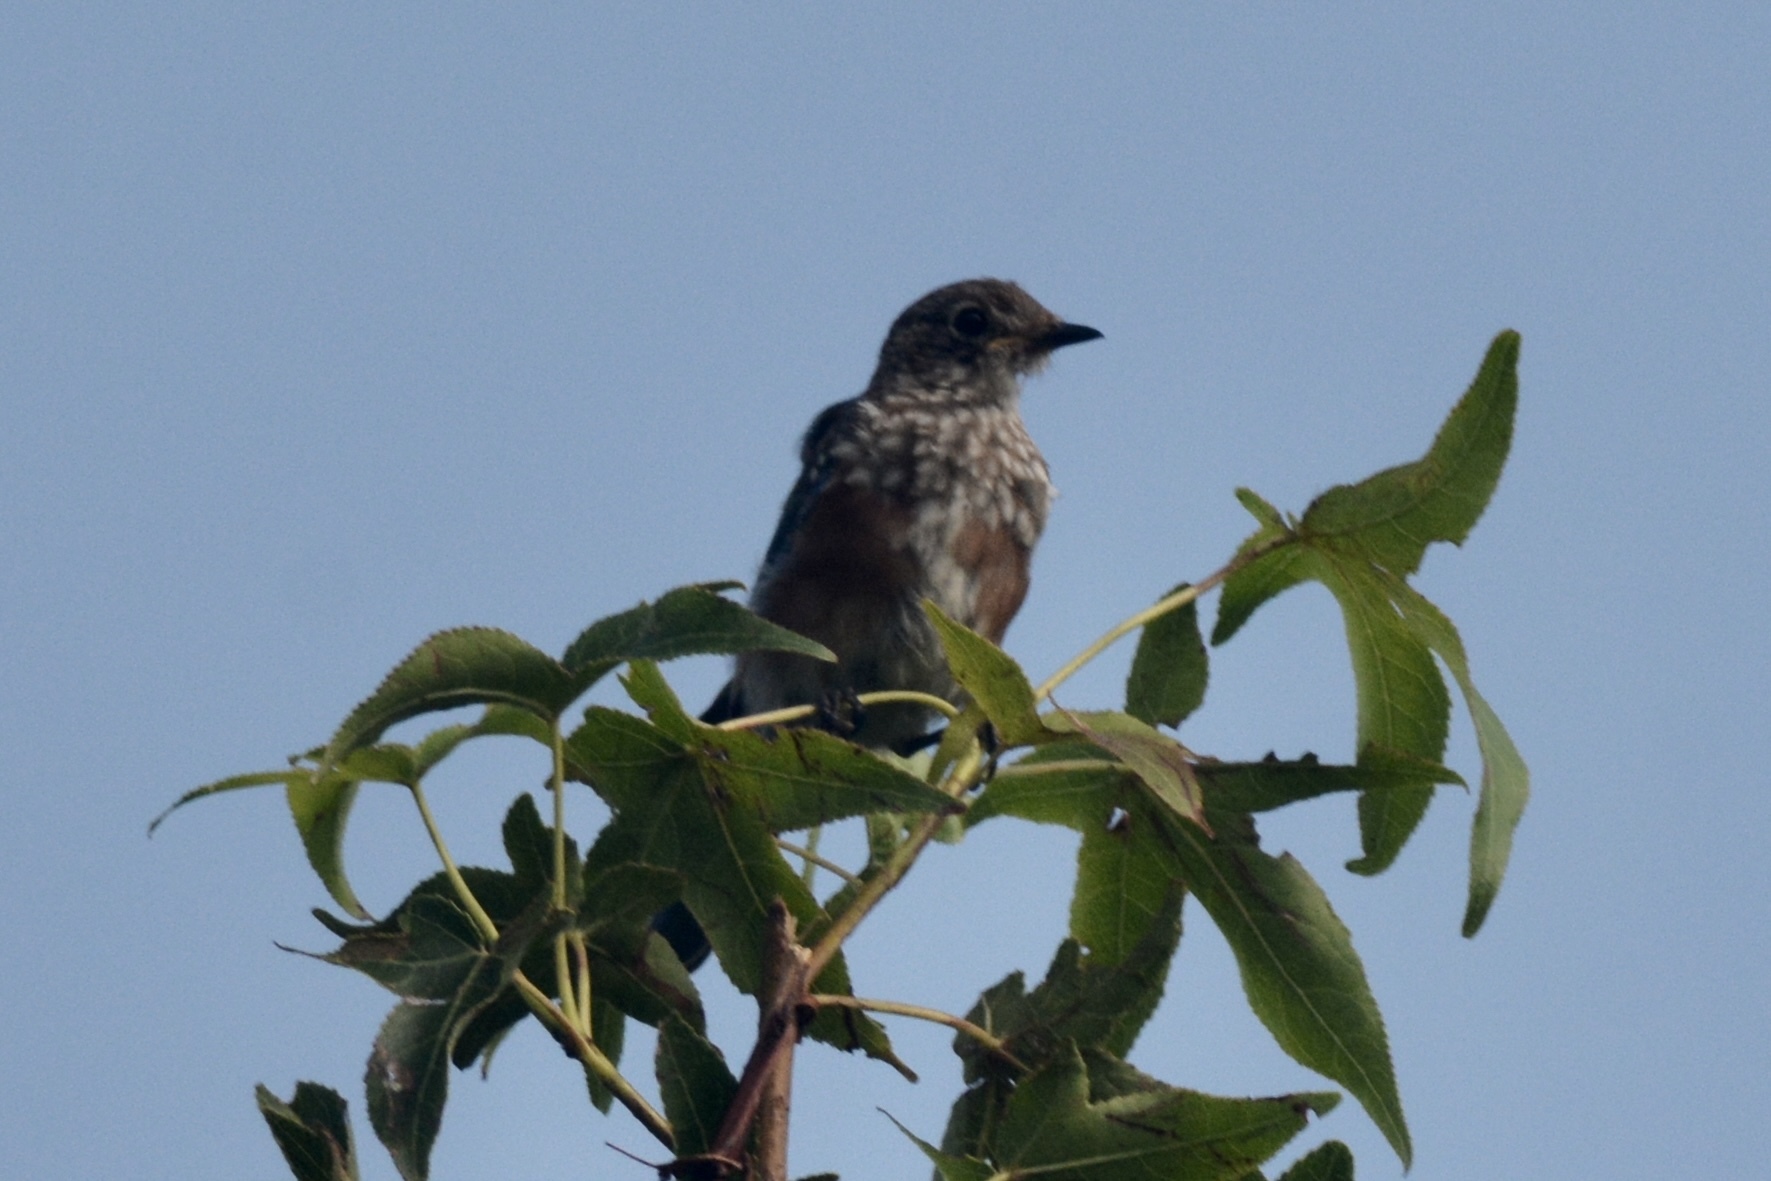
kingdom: Animalia
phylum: Chordata
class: Aves
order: Passeriformes
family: Turdidae
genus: Sialia
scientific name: Sialia sialis
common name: Eastern bluebird
